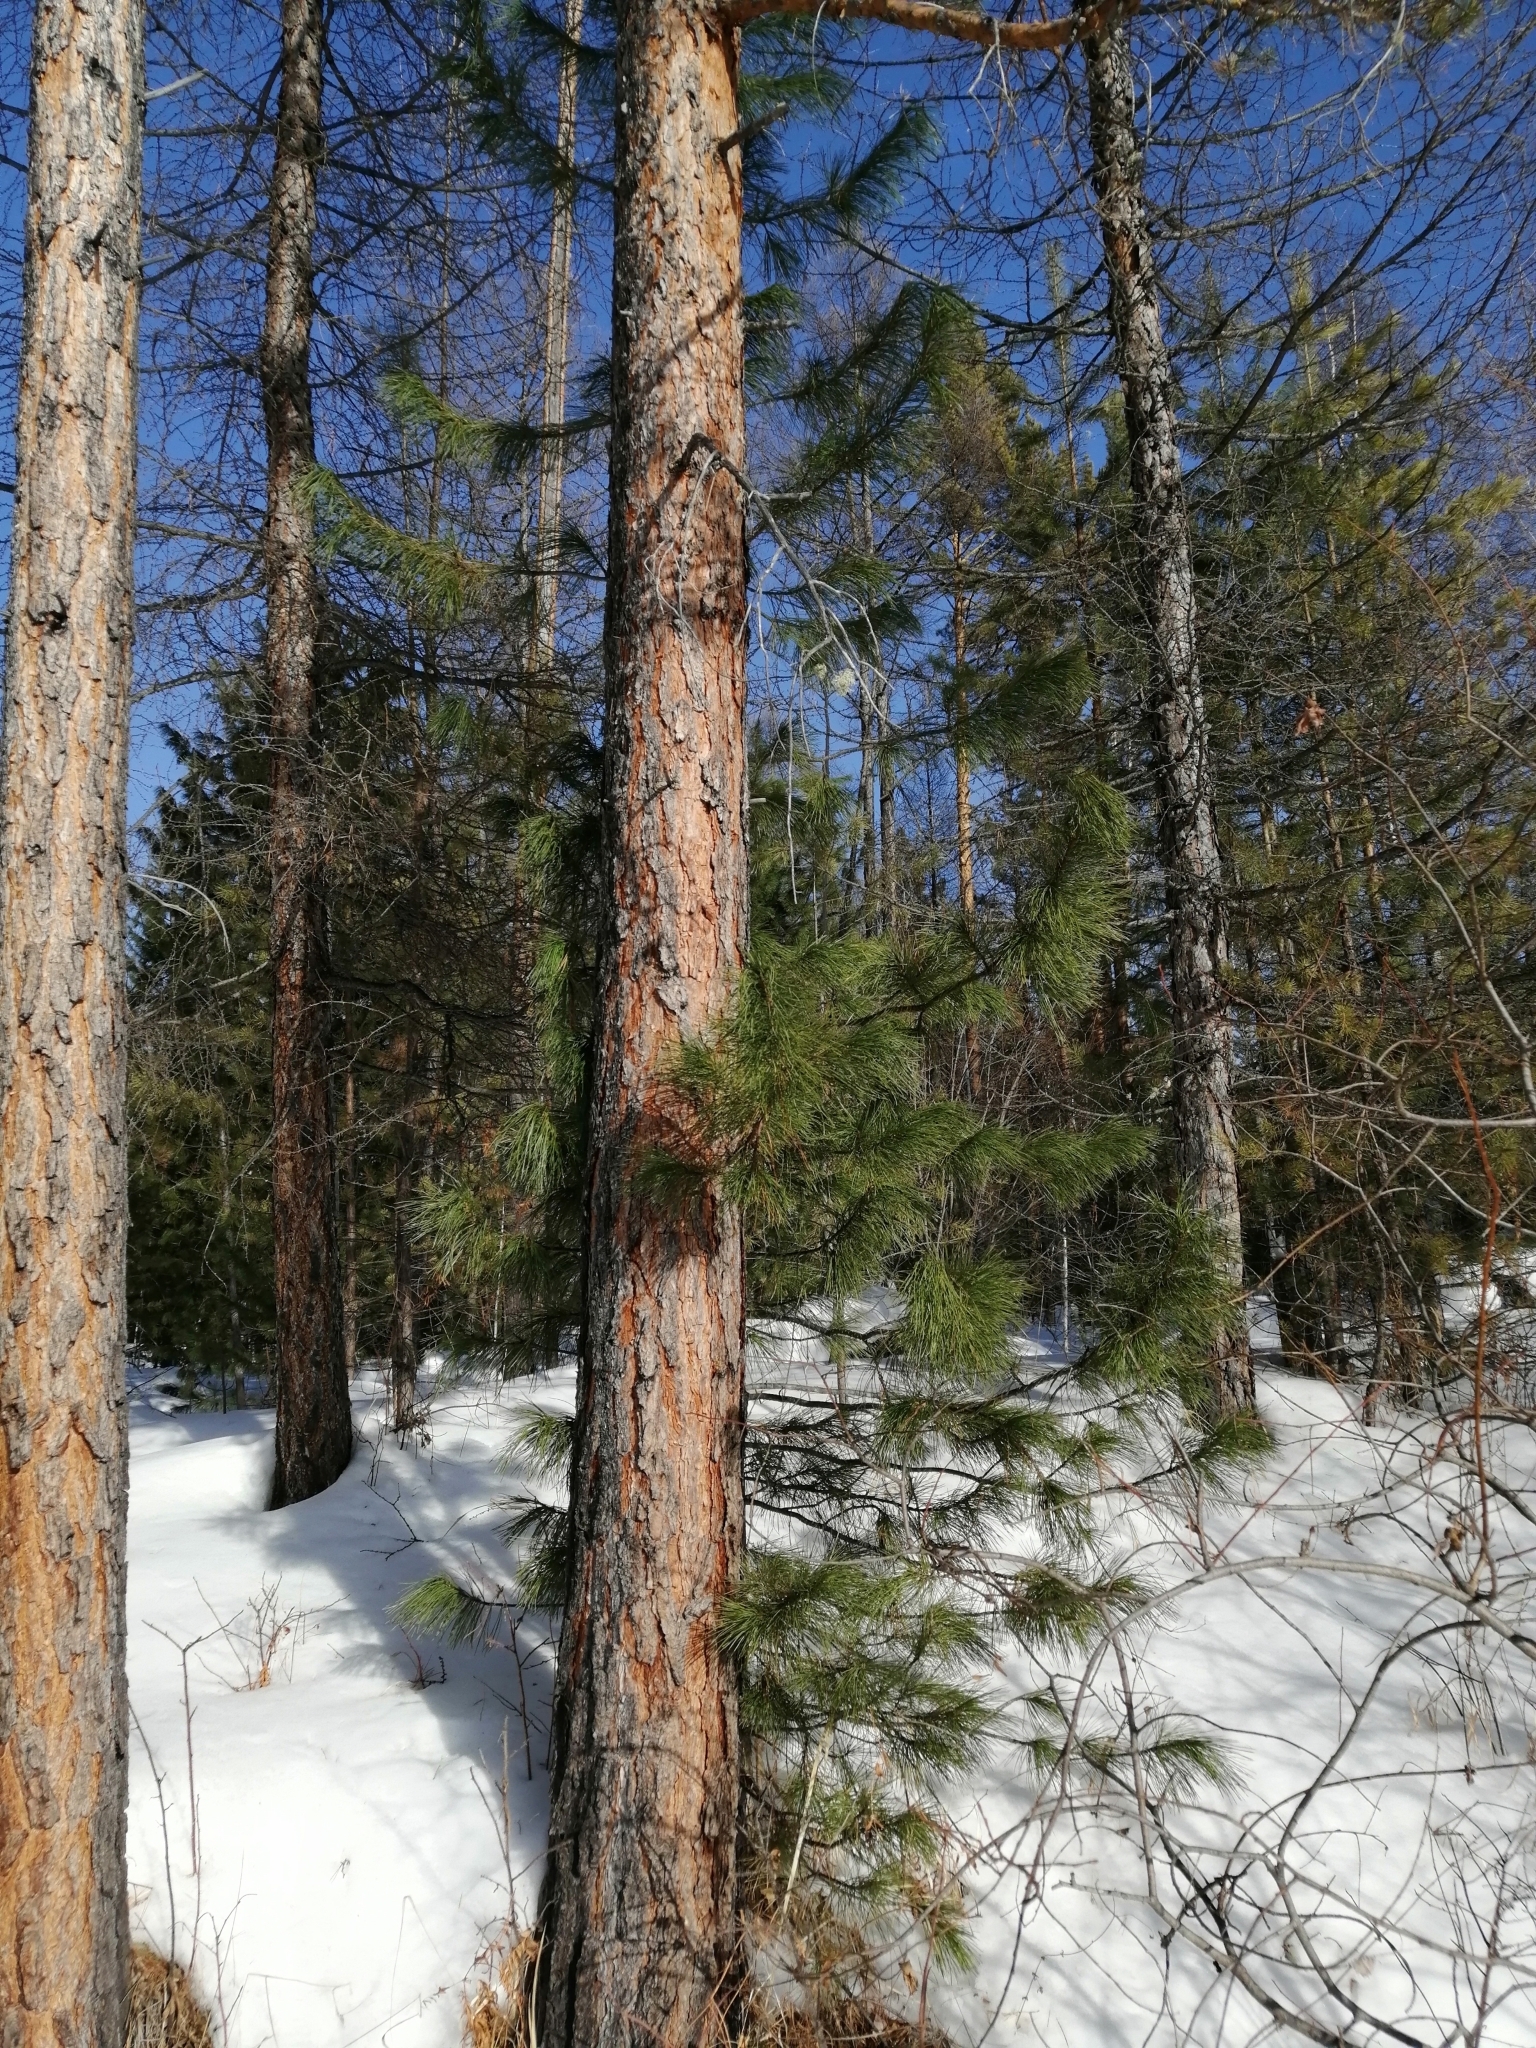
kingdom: Plantae
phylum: Tracheophyta
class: Pinopsida
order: Pinales
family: Pinaceae
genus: Pinus
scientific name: Pinus sibirica
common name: Siberian pine
